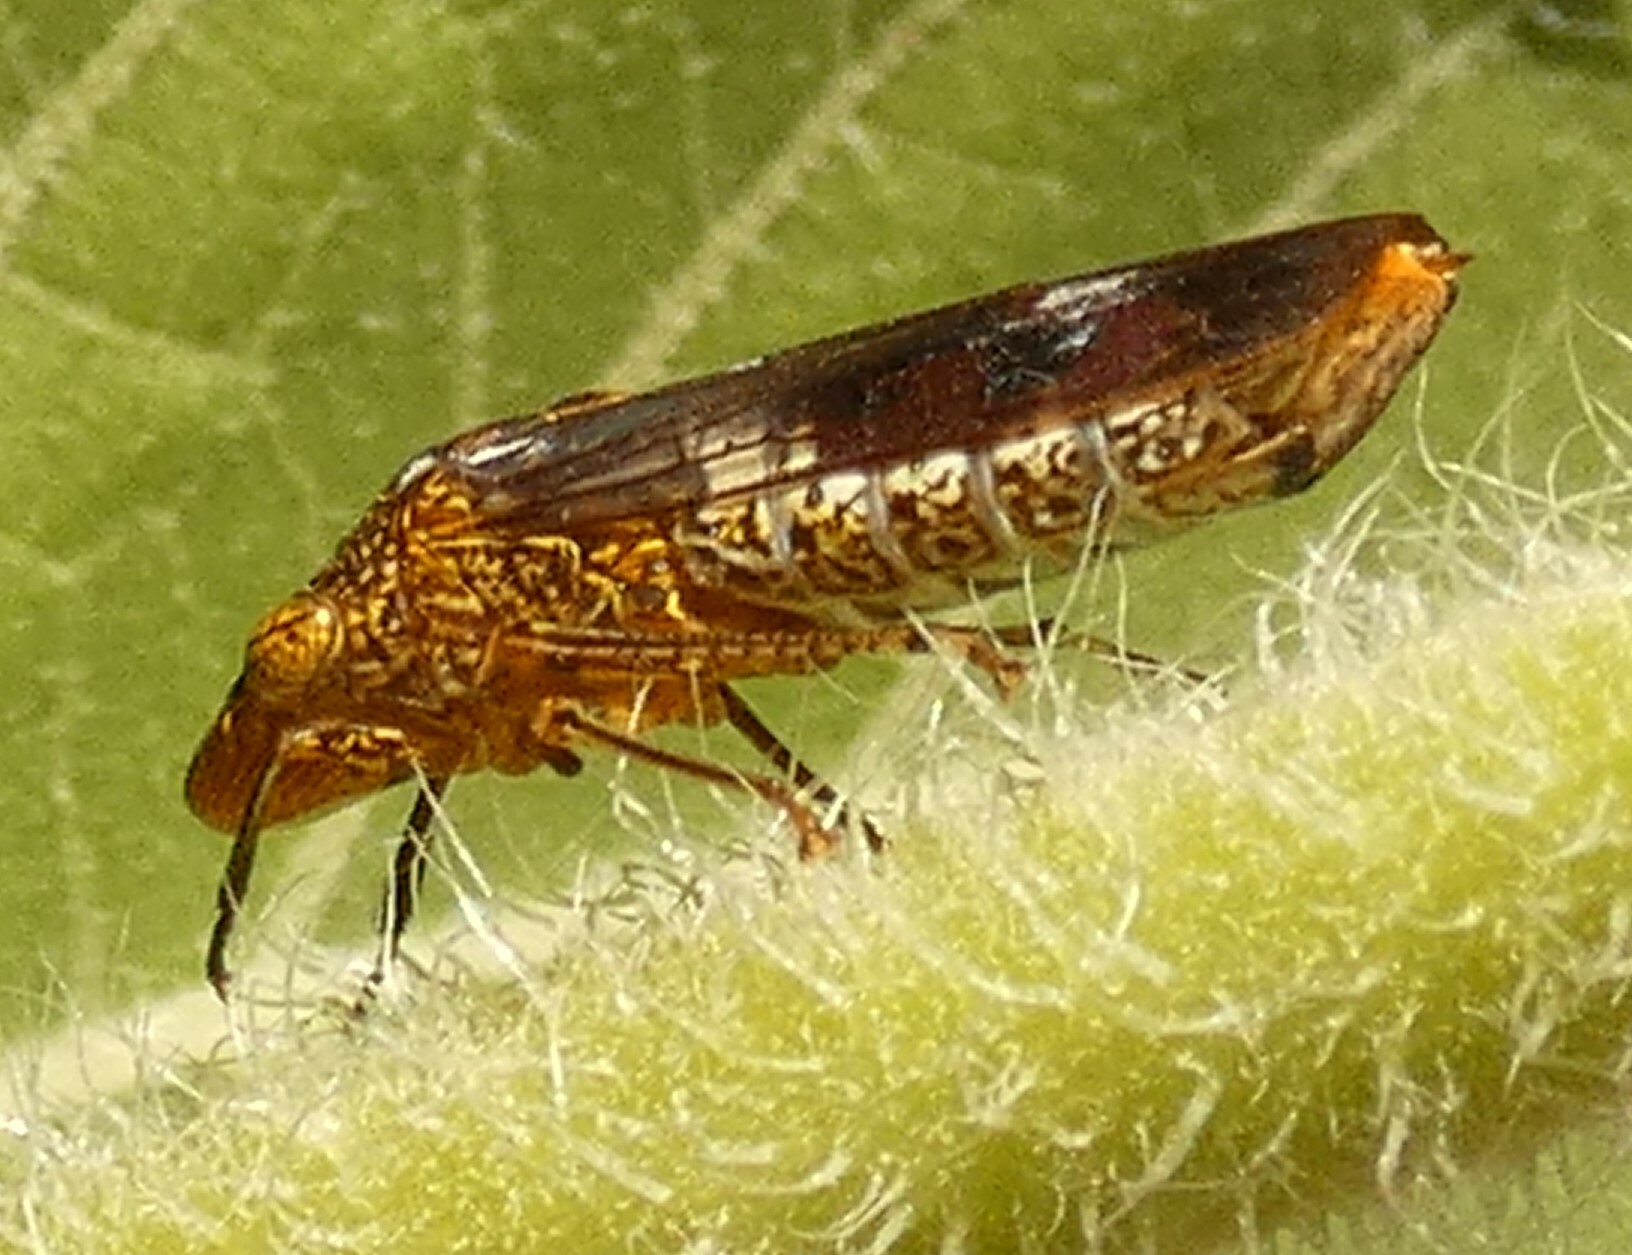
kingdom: Animalia
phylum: Arthropoda
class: Insecta
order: Hemiptera
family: Cicadellidae
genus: Homalodisca
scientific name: Homalodisca vitripennis
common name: Glassy-winged sharpshooter
